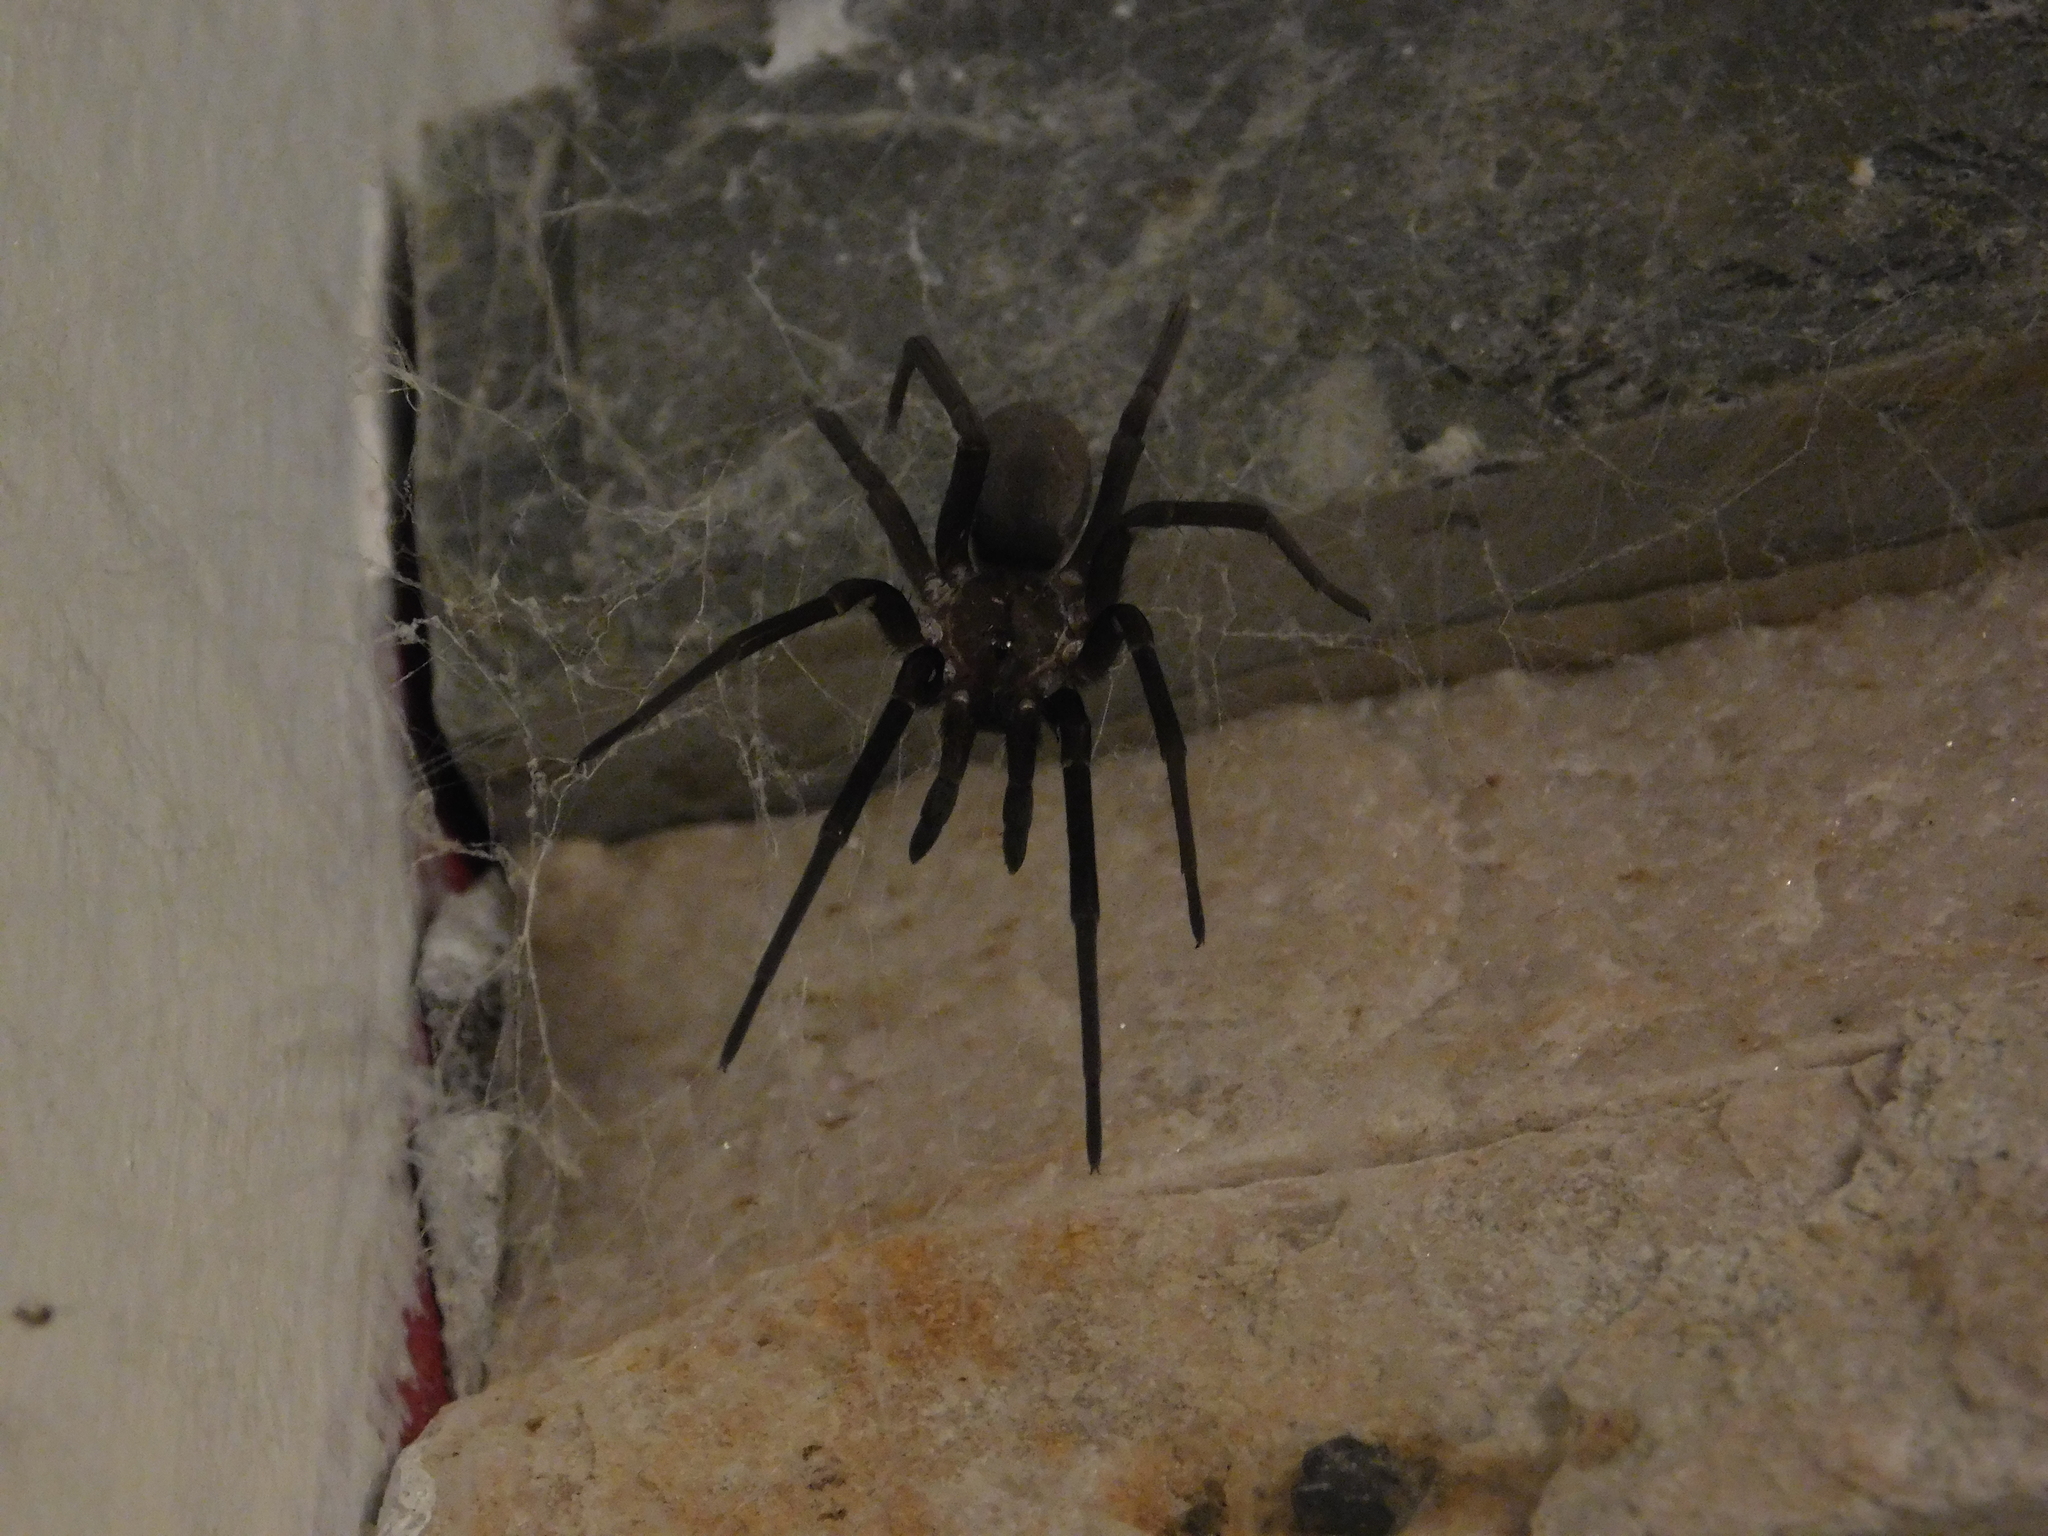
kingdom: Animalia
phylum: Arthropoda
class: Arachnida
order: Araneae
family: Filistatidae
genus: Kukulcania
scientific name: Kukulcania hibernalis
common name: Crevice weaver
